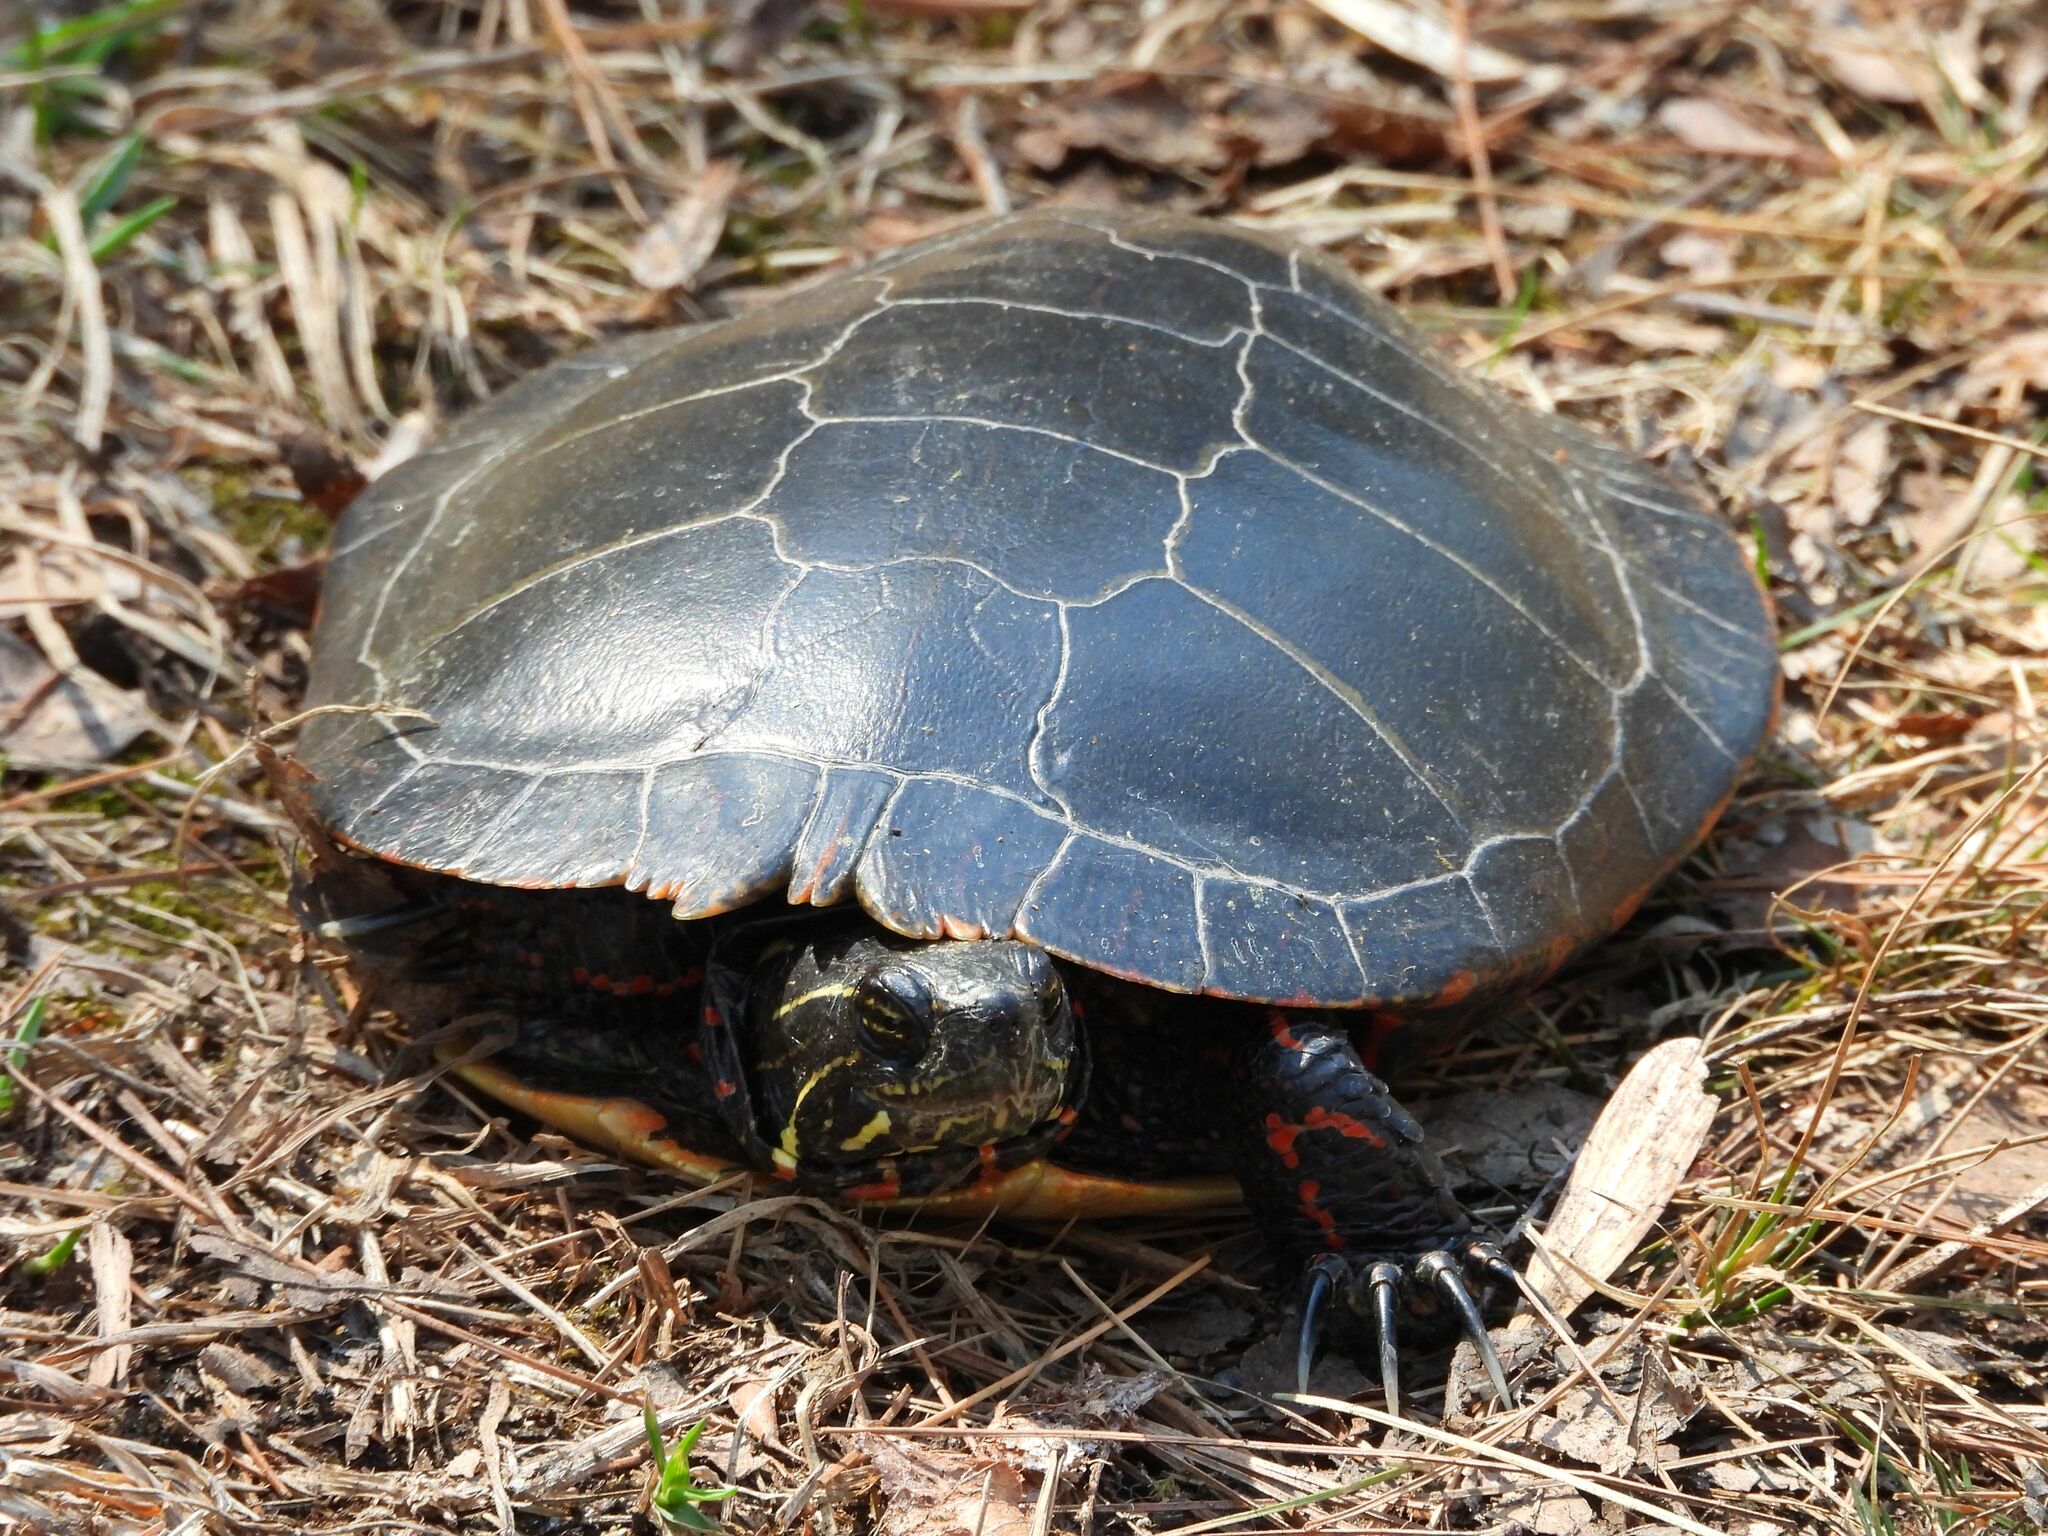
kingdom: Animalia
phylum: Chordata
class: Testudines
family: Emydidae
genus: Chrysemys
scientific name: Chrysemys picta
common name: Painted turtle
